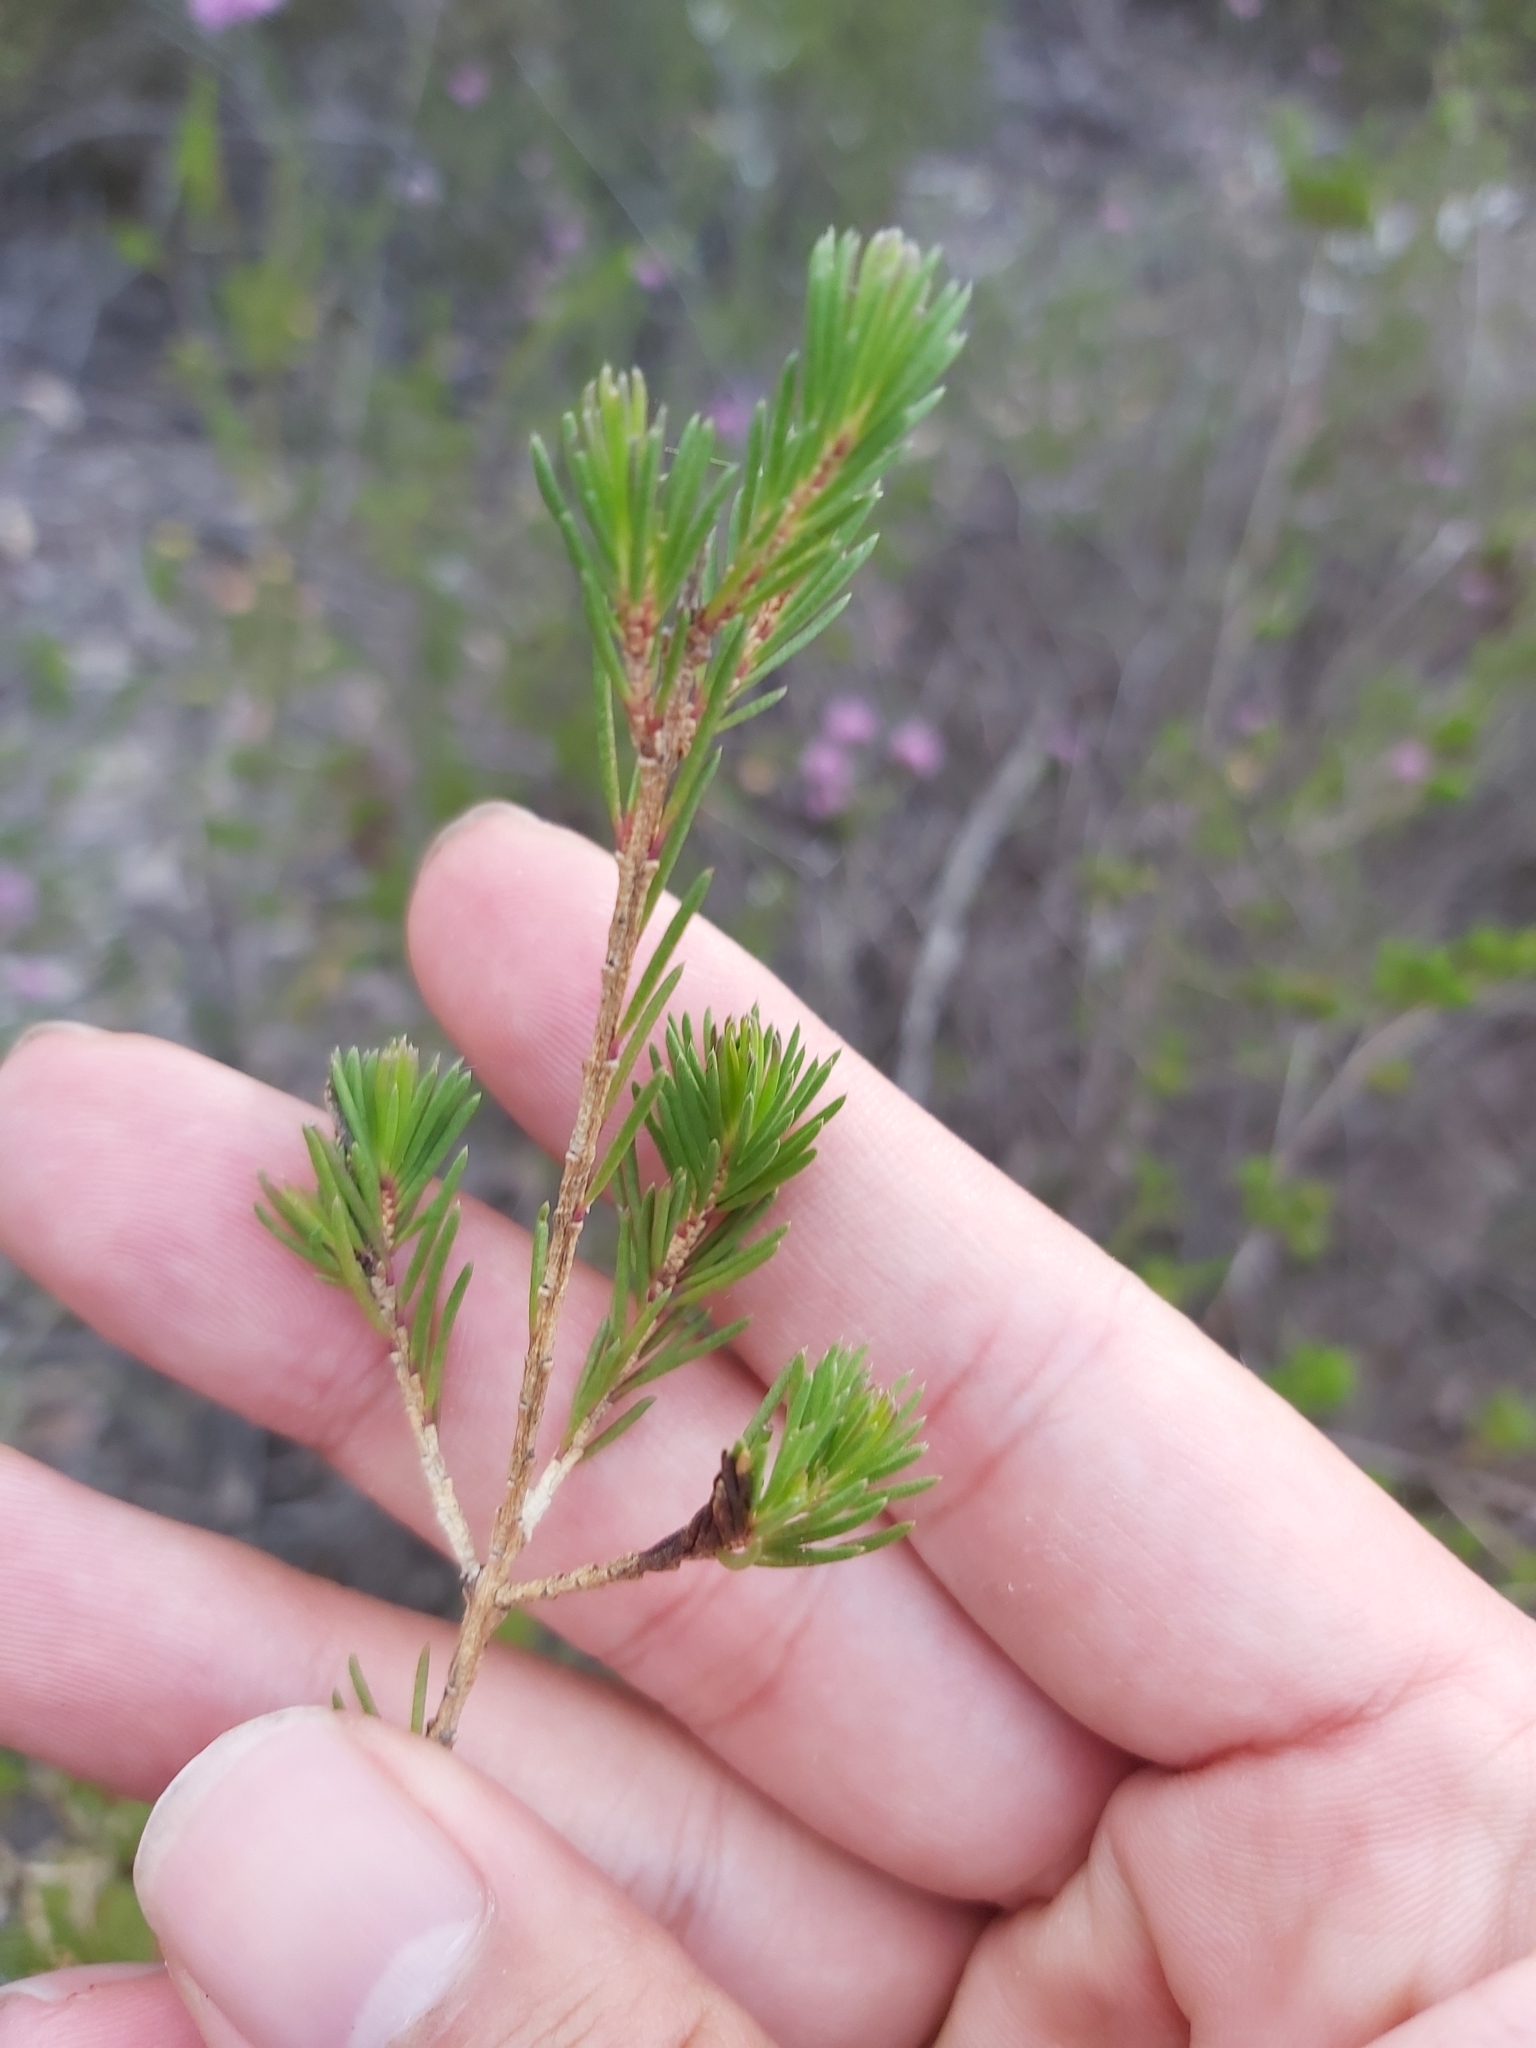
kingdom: Plantae
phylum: Tracheophyta
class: Magnoliopsida
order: Myrtales
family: Myrtaceae
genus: Darwinia
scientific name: Darwinia fascicularis
